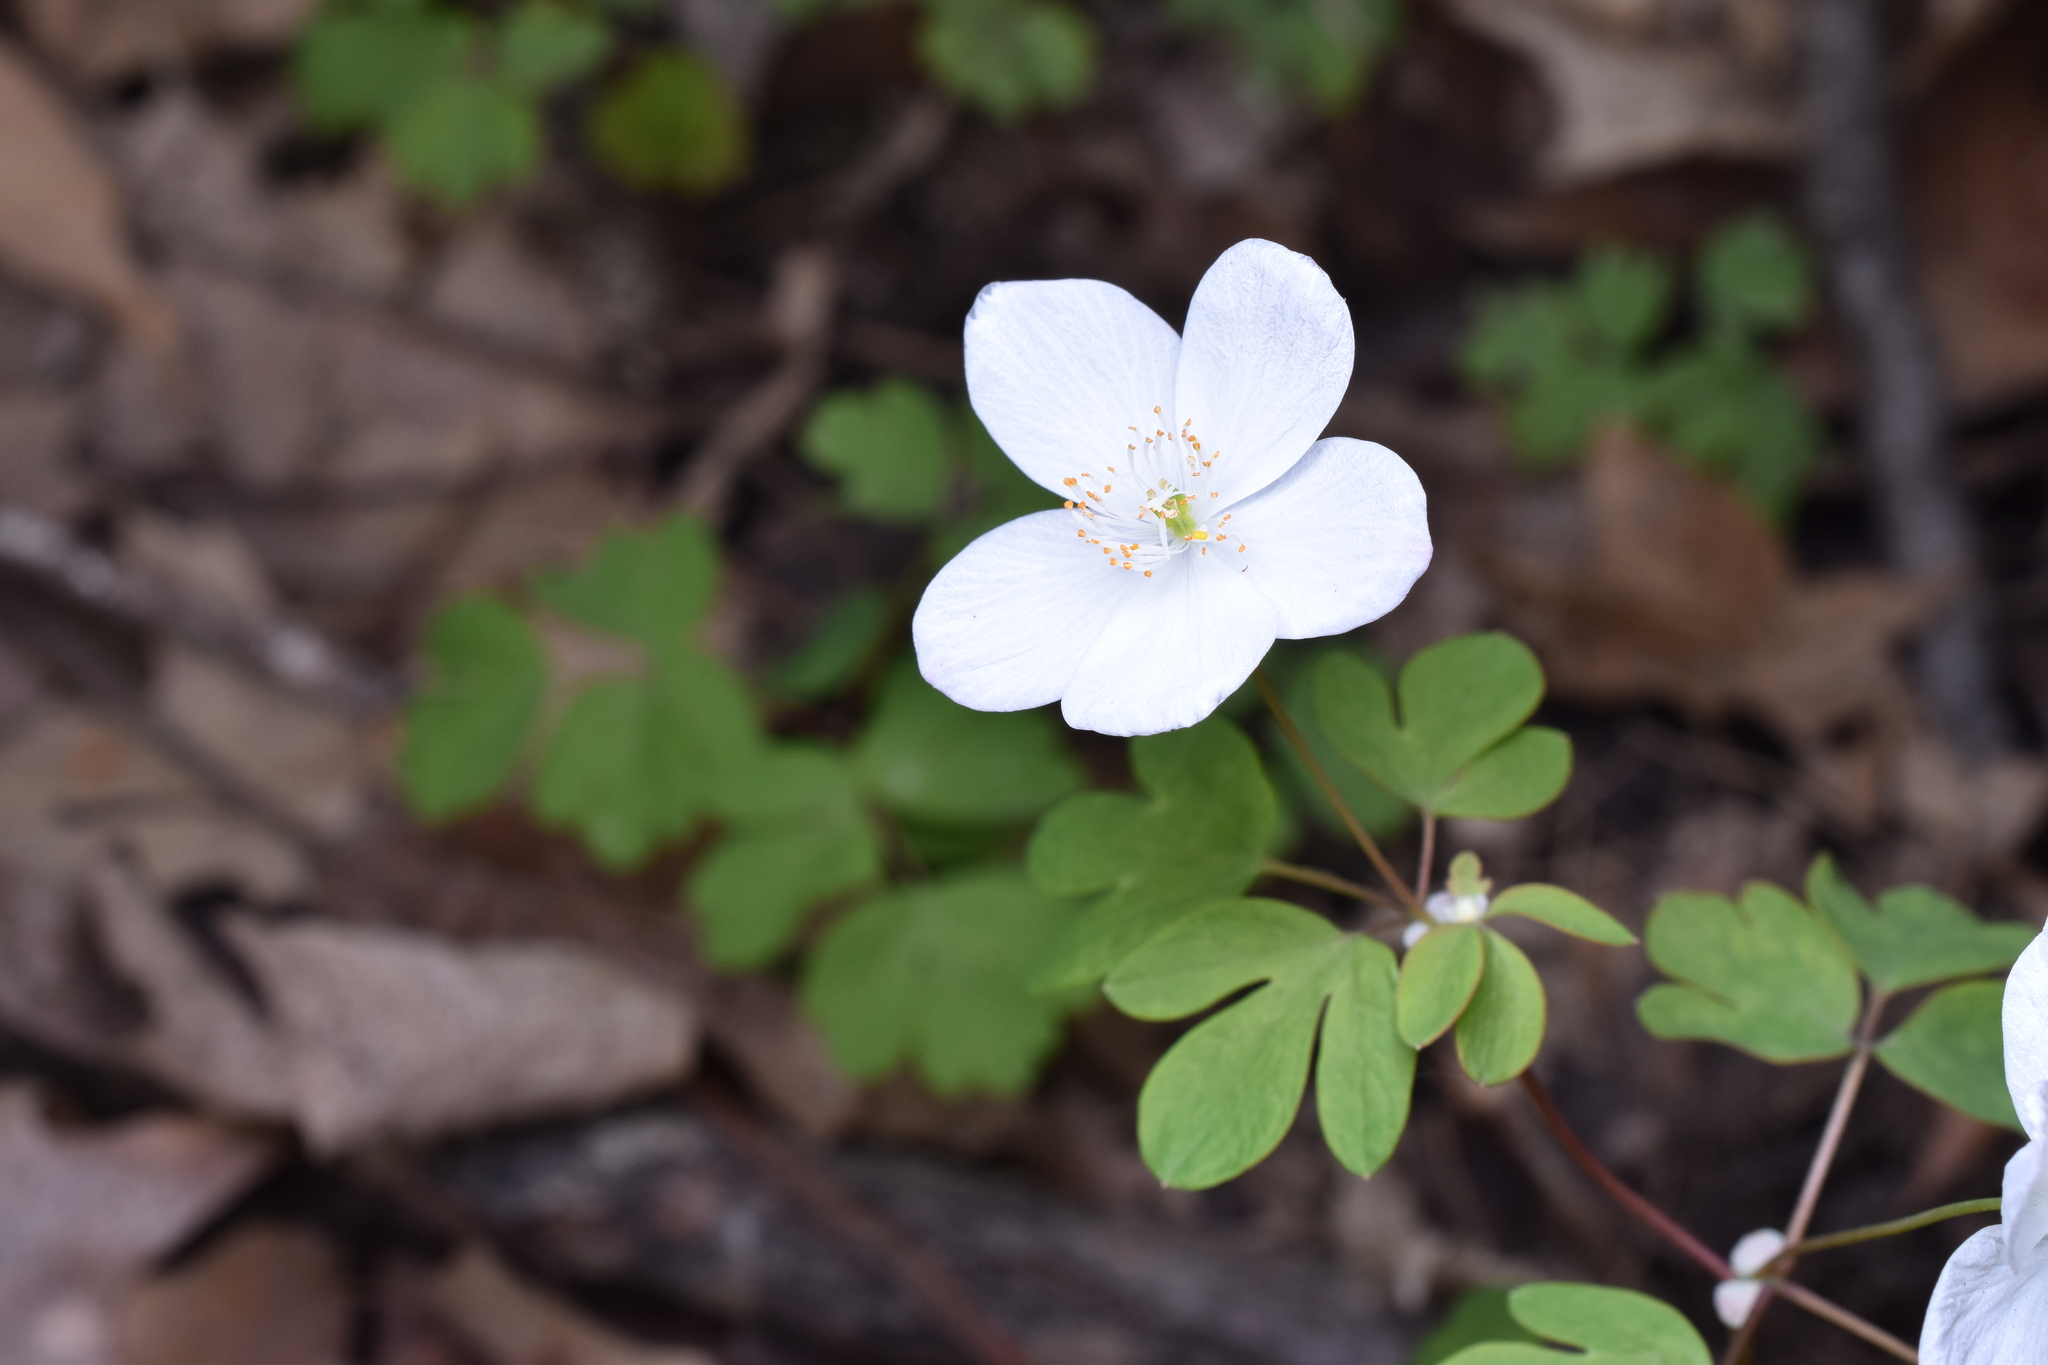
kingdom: Plantae
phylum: Tracheophyta
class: Magnoliopsida
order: Ranunculales
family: Ranunculaceae
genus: Enemion
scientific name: Enemion biternatum
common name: Eastern false rue-anemone
